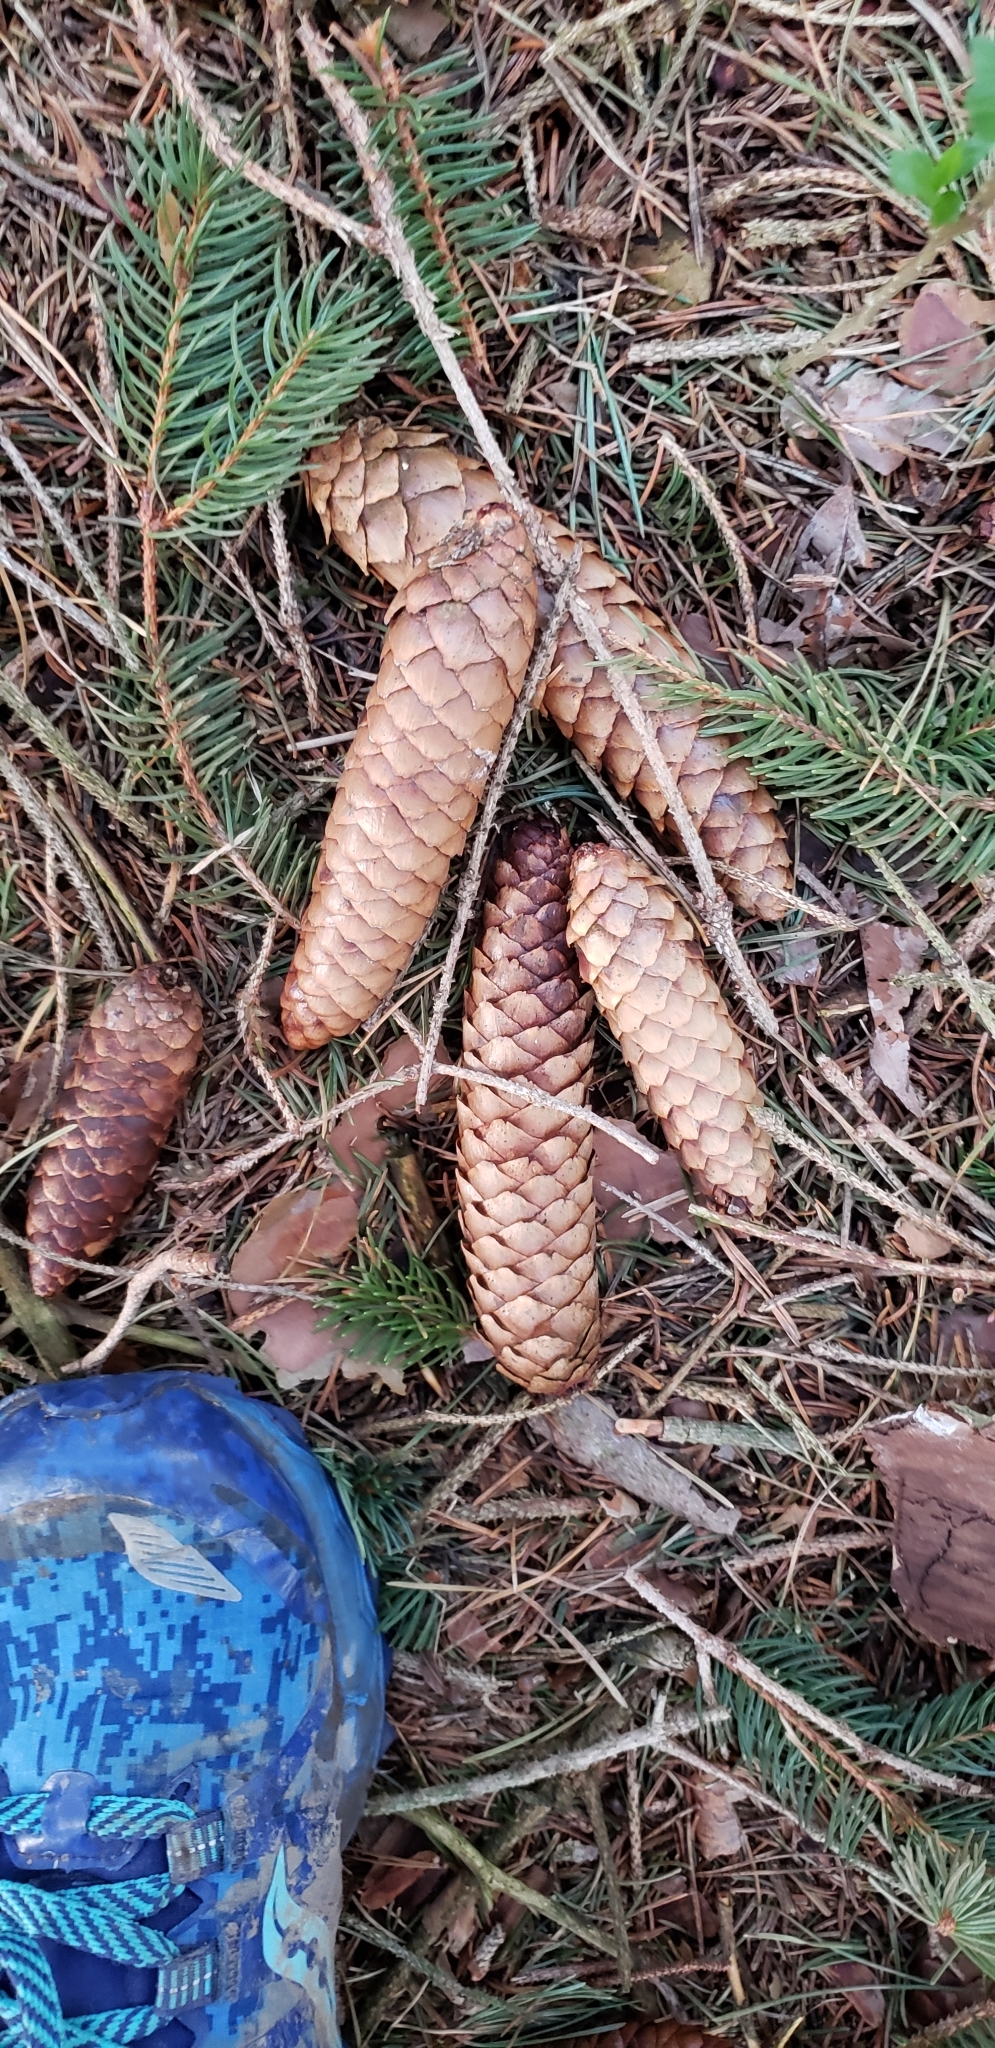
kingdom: Plantae
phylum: Tracheophyta
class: Pinopsida
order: Pinales
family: Pinaceae
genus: Picea
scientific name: Picea abies
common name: Norway spruce
